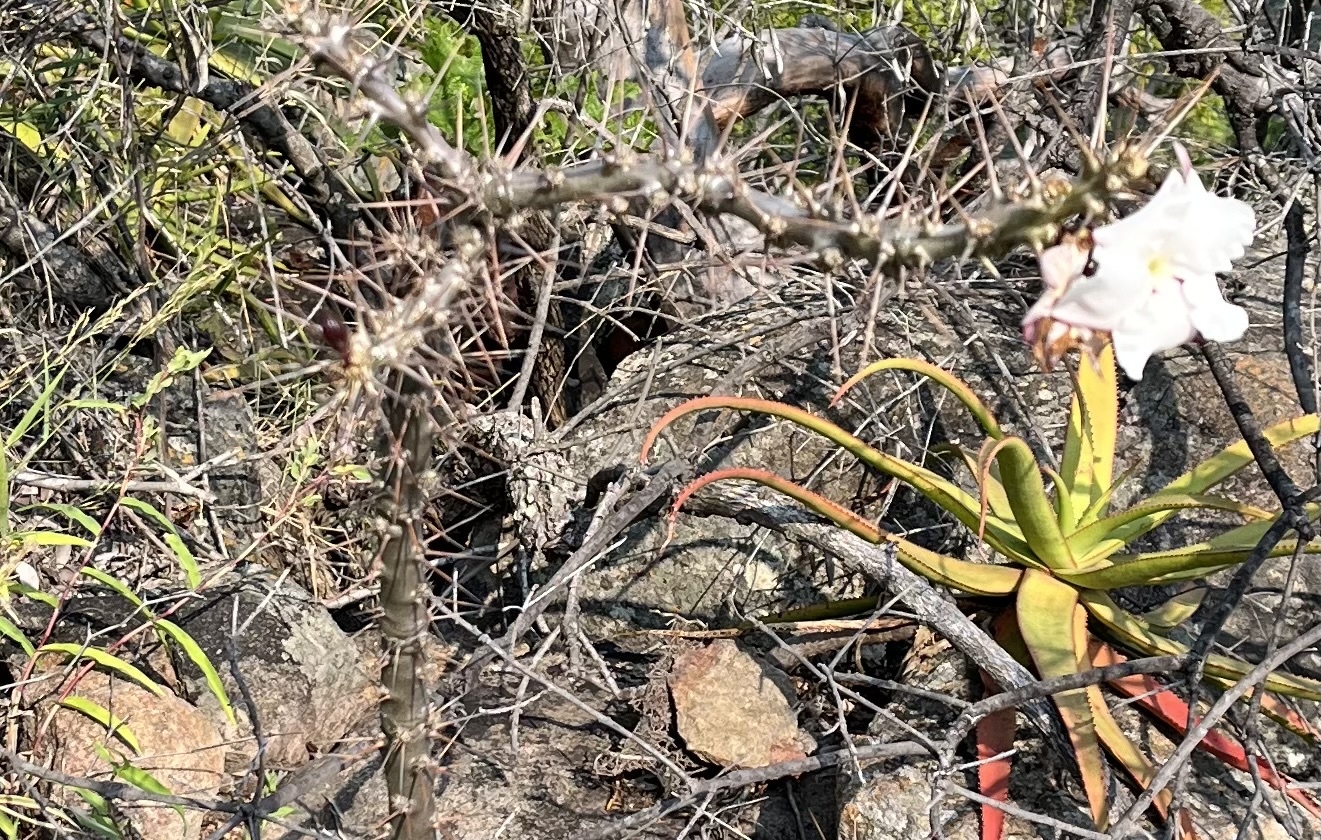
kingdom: Plantae
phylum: Tracheophyta
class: Magnoliopsida
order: Gentianales
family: Apocynaceae
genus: Pachypodium
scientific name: Pachypodium saundersii
